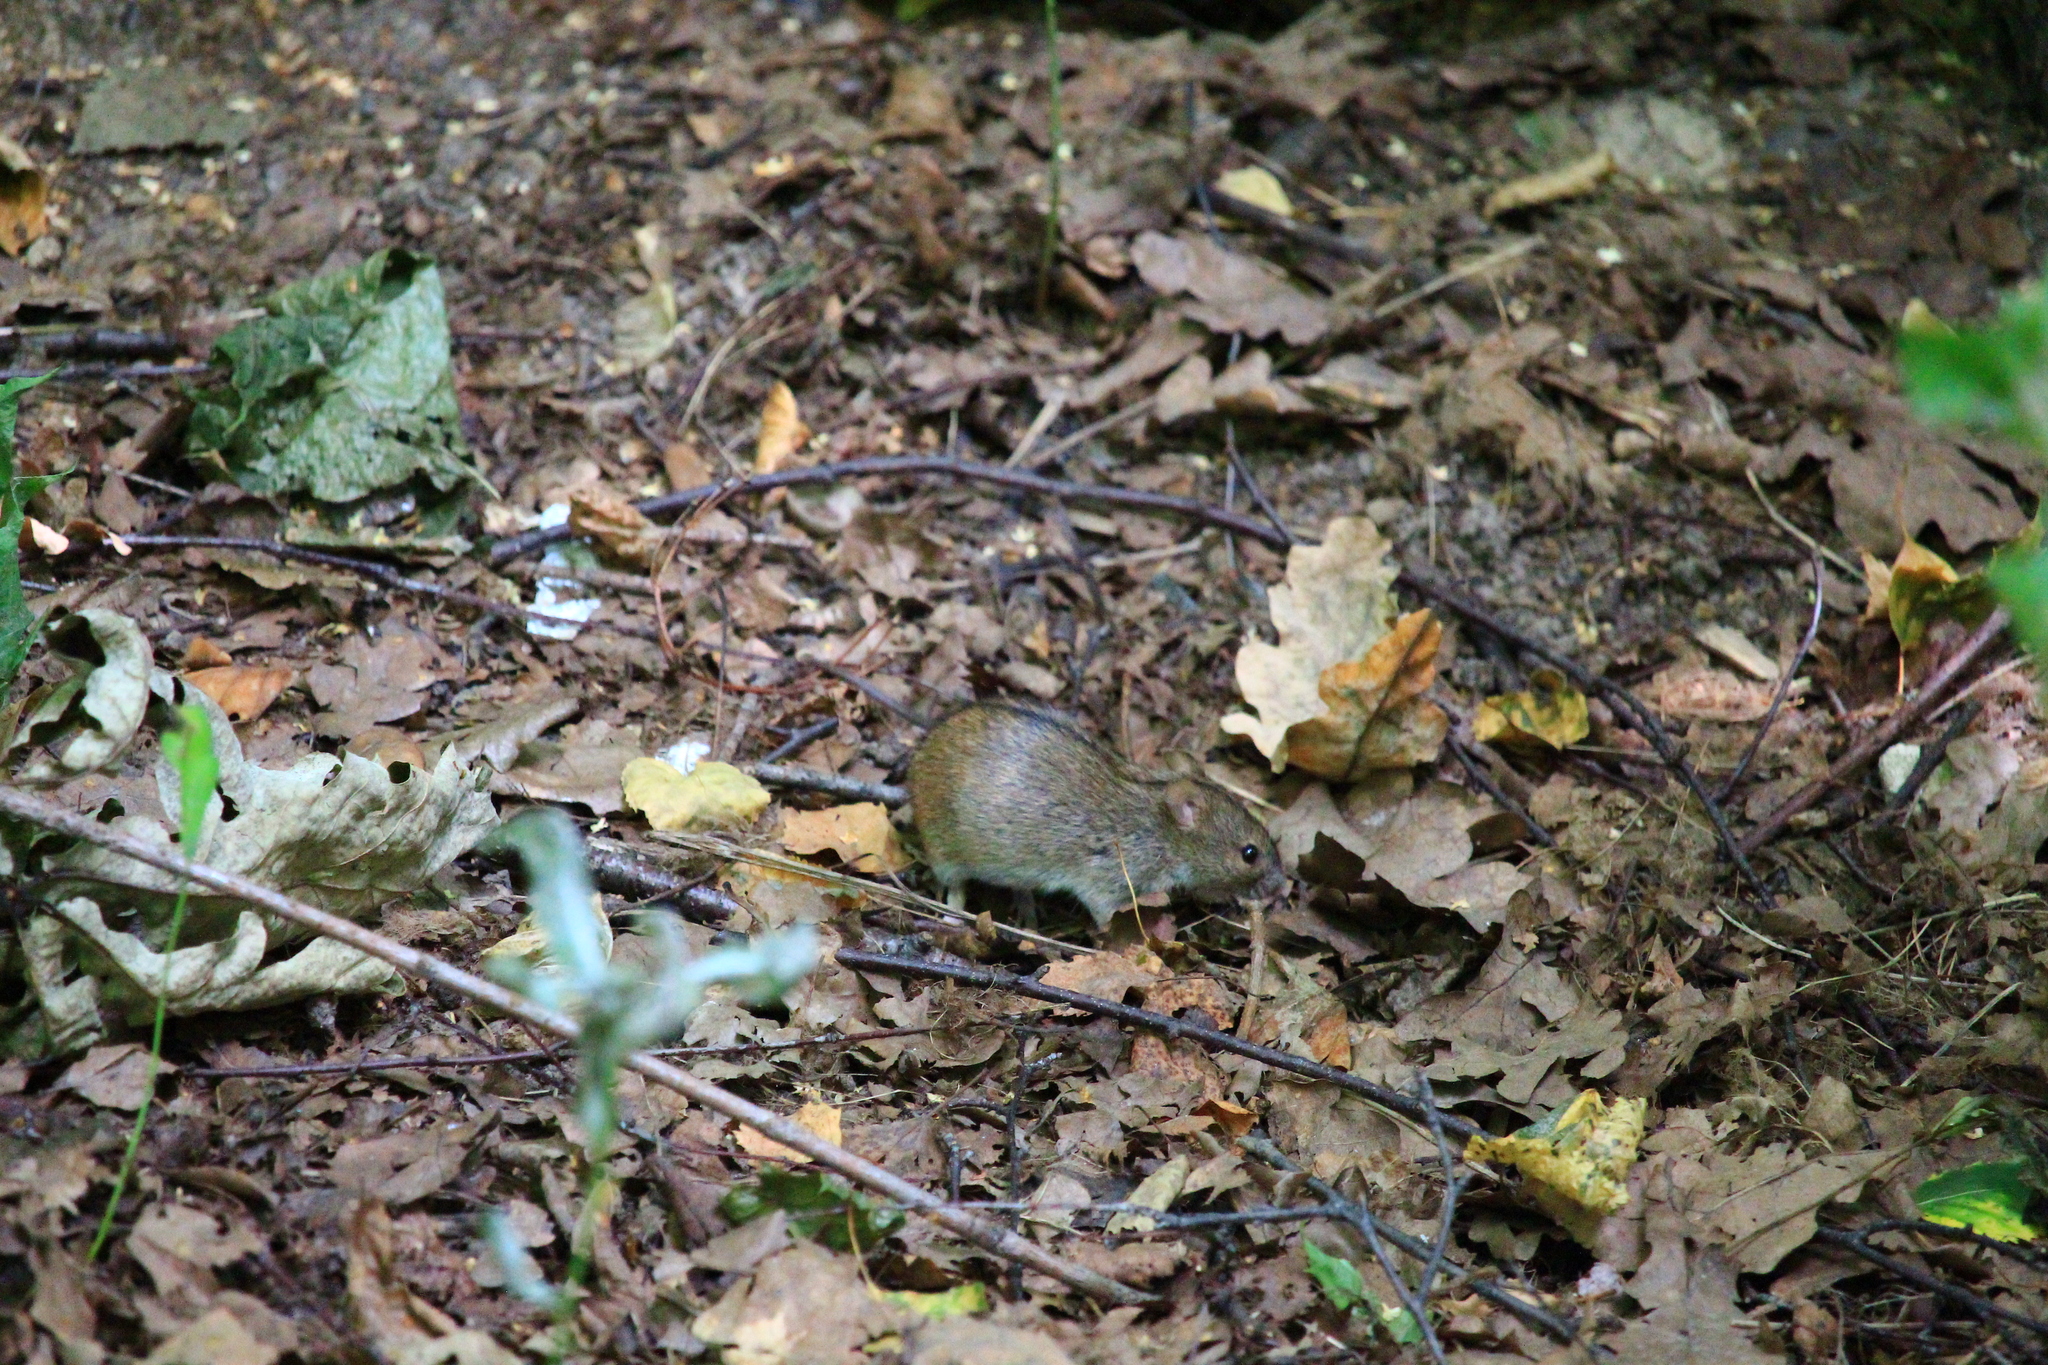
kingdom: Animalia
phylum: Chordata
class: Mammalia
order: Rodentia
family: Muridae
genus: Apodemus
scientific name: Apodemus agrarius
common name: Striped field mouse
